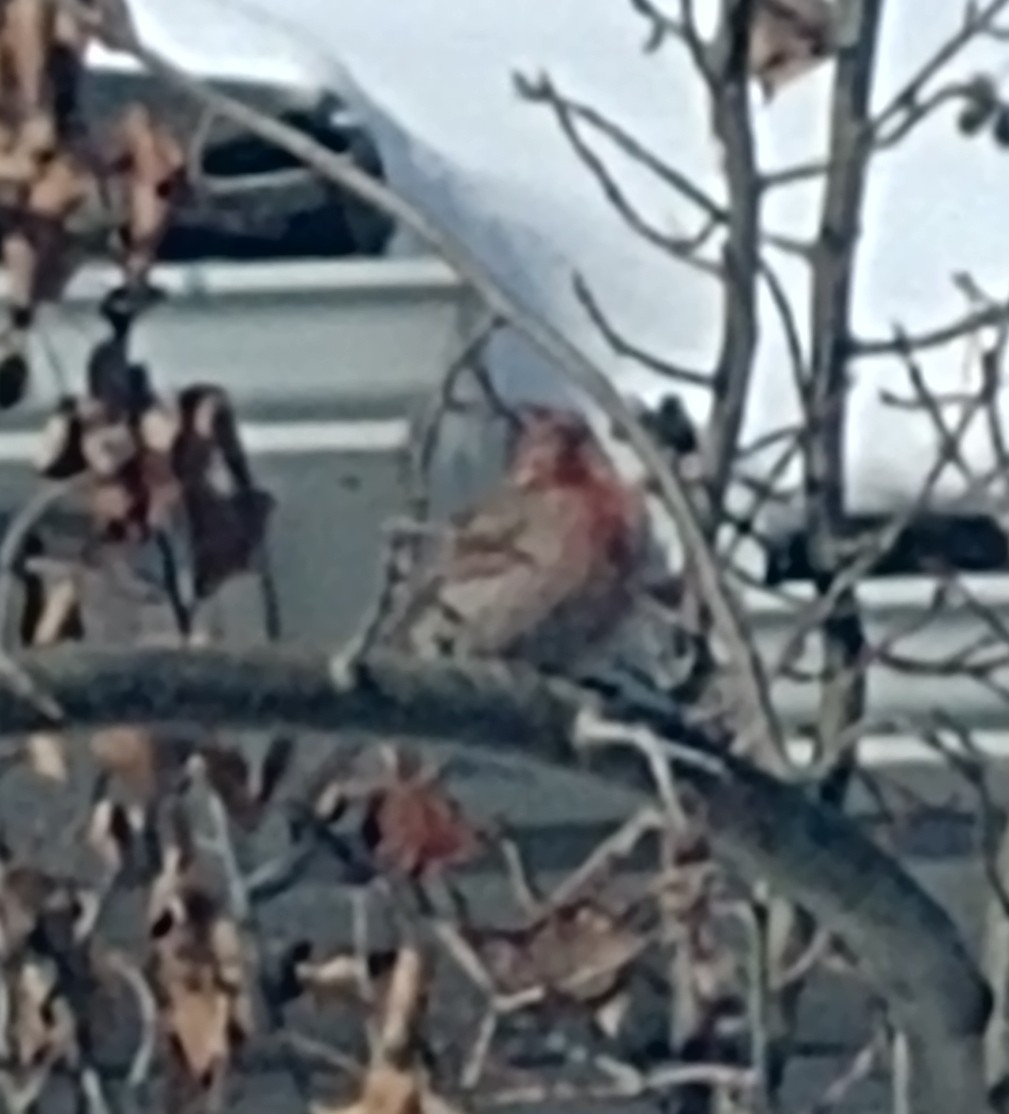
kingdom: Animalia
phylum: Chordata
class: Aves
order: Passeriformes
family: Fringillidae
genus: Haemorhous
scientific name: Haemorhous mexicanus
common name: House finch
